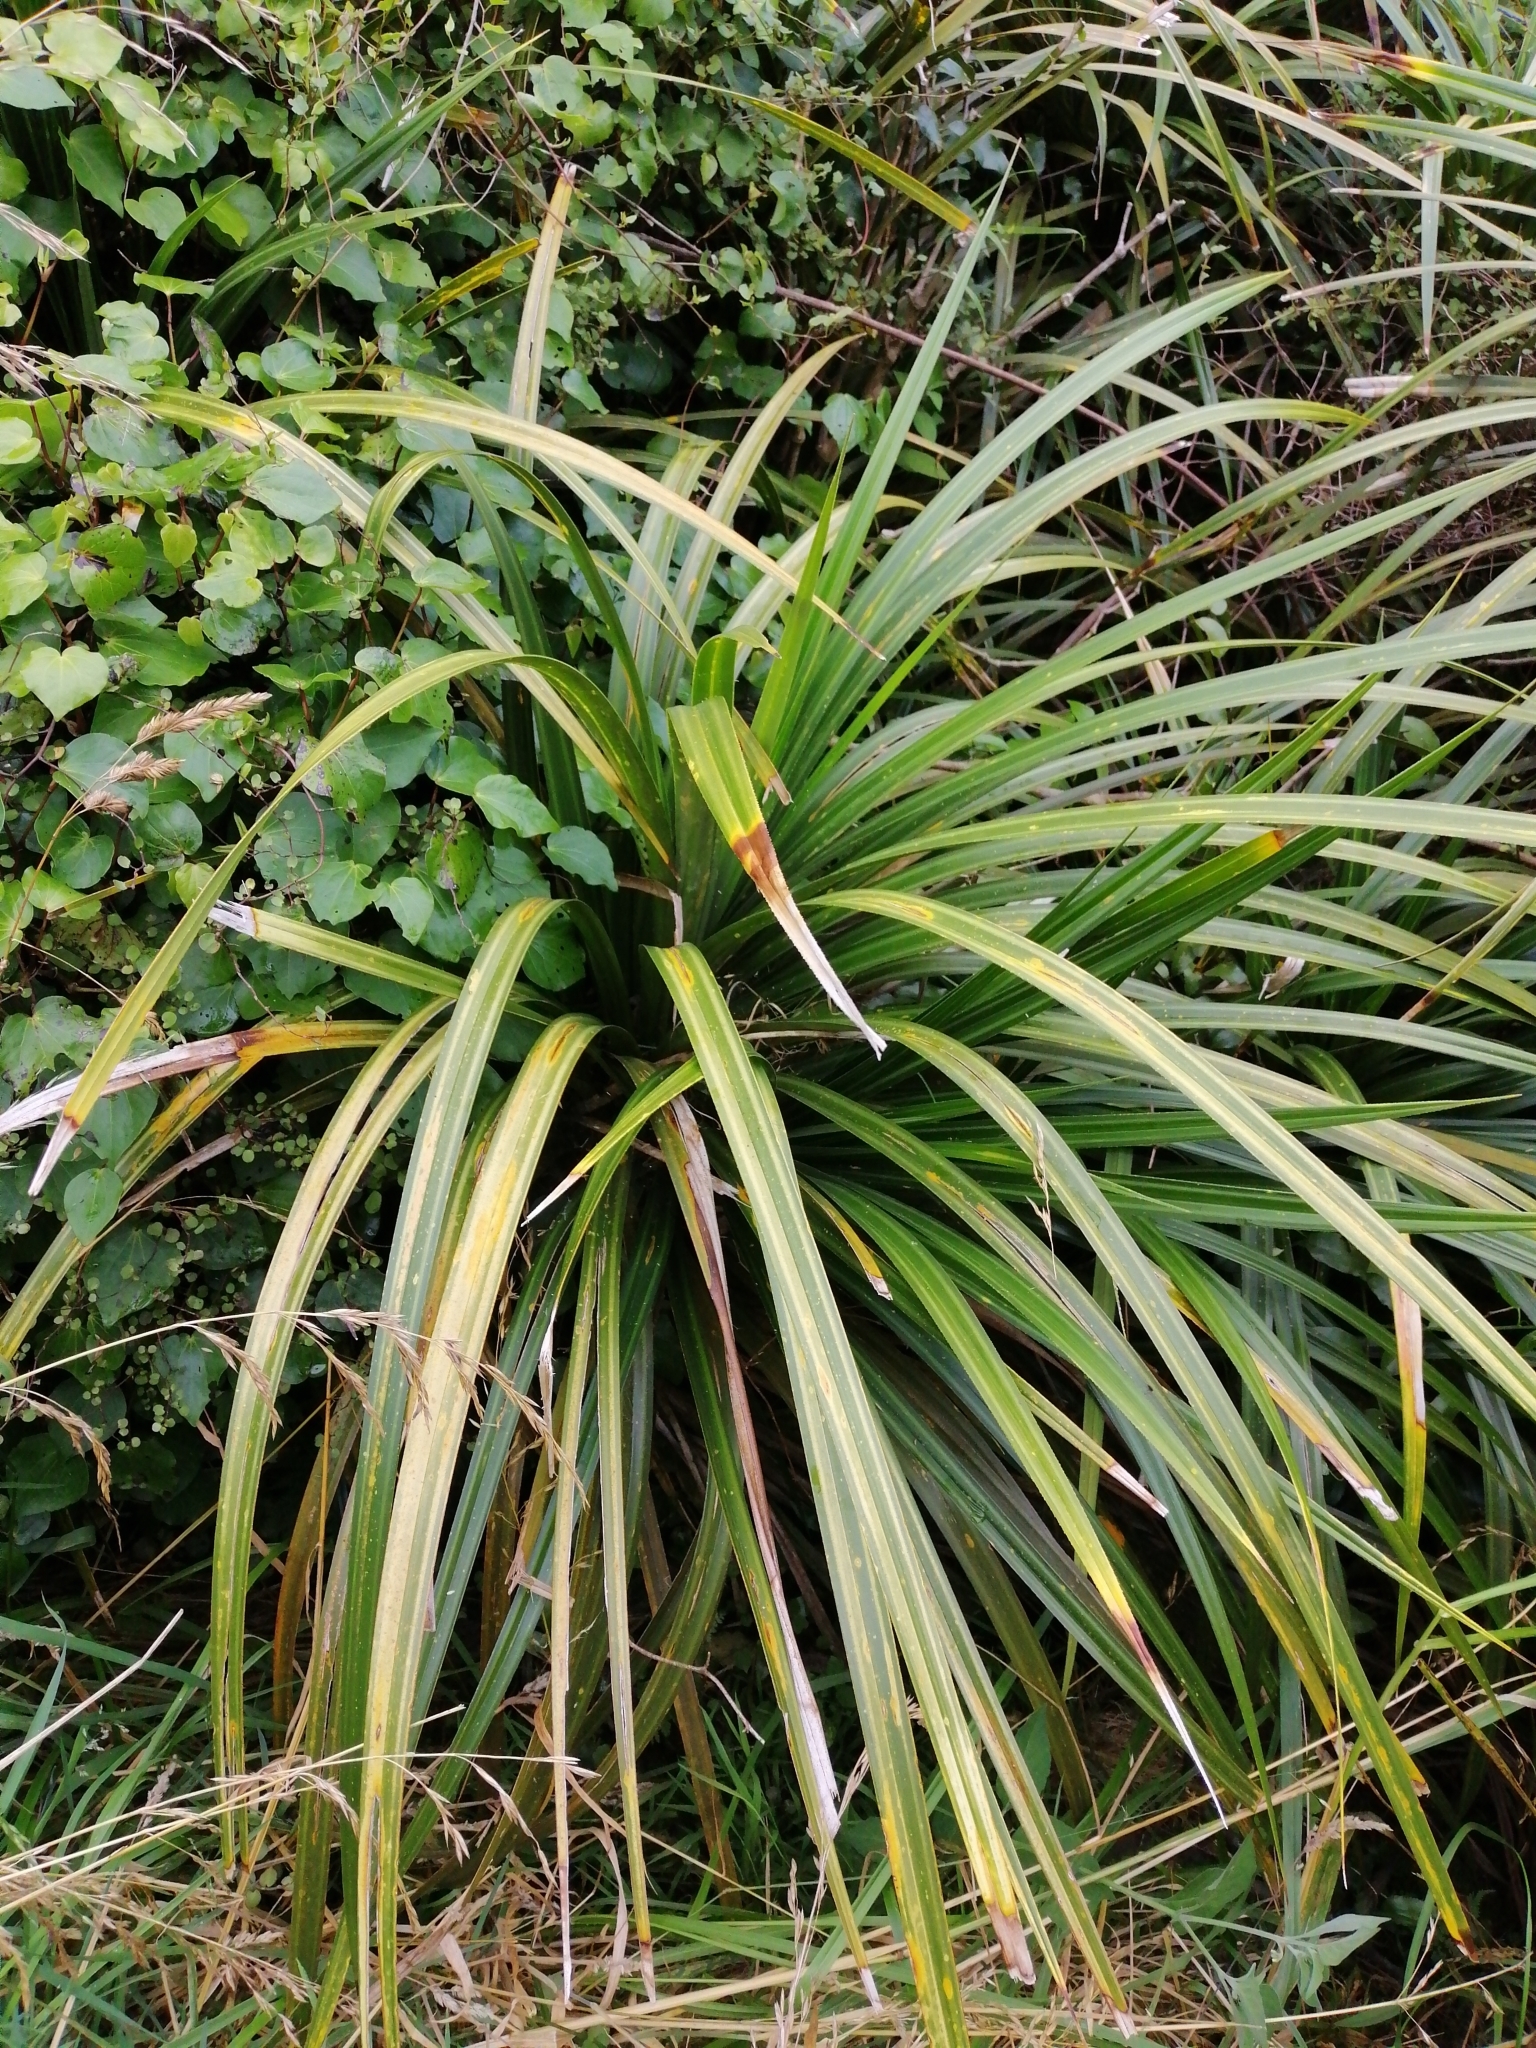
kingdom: Plantae
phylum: Tracheophyta
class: Liliopsida
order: Pandanales
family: Pandanaceae
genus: Freycinetia
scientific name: Freycinetia banksii
